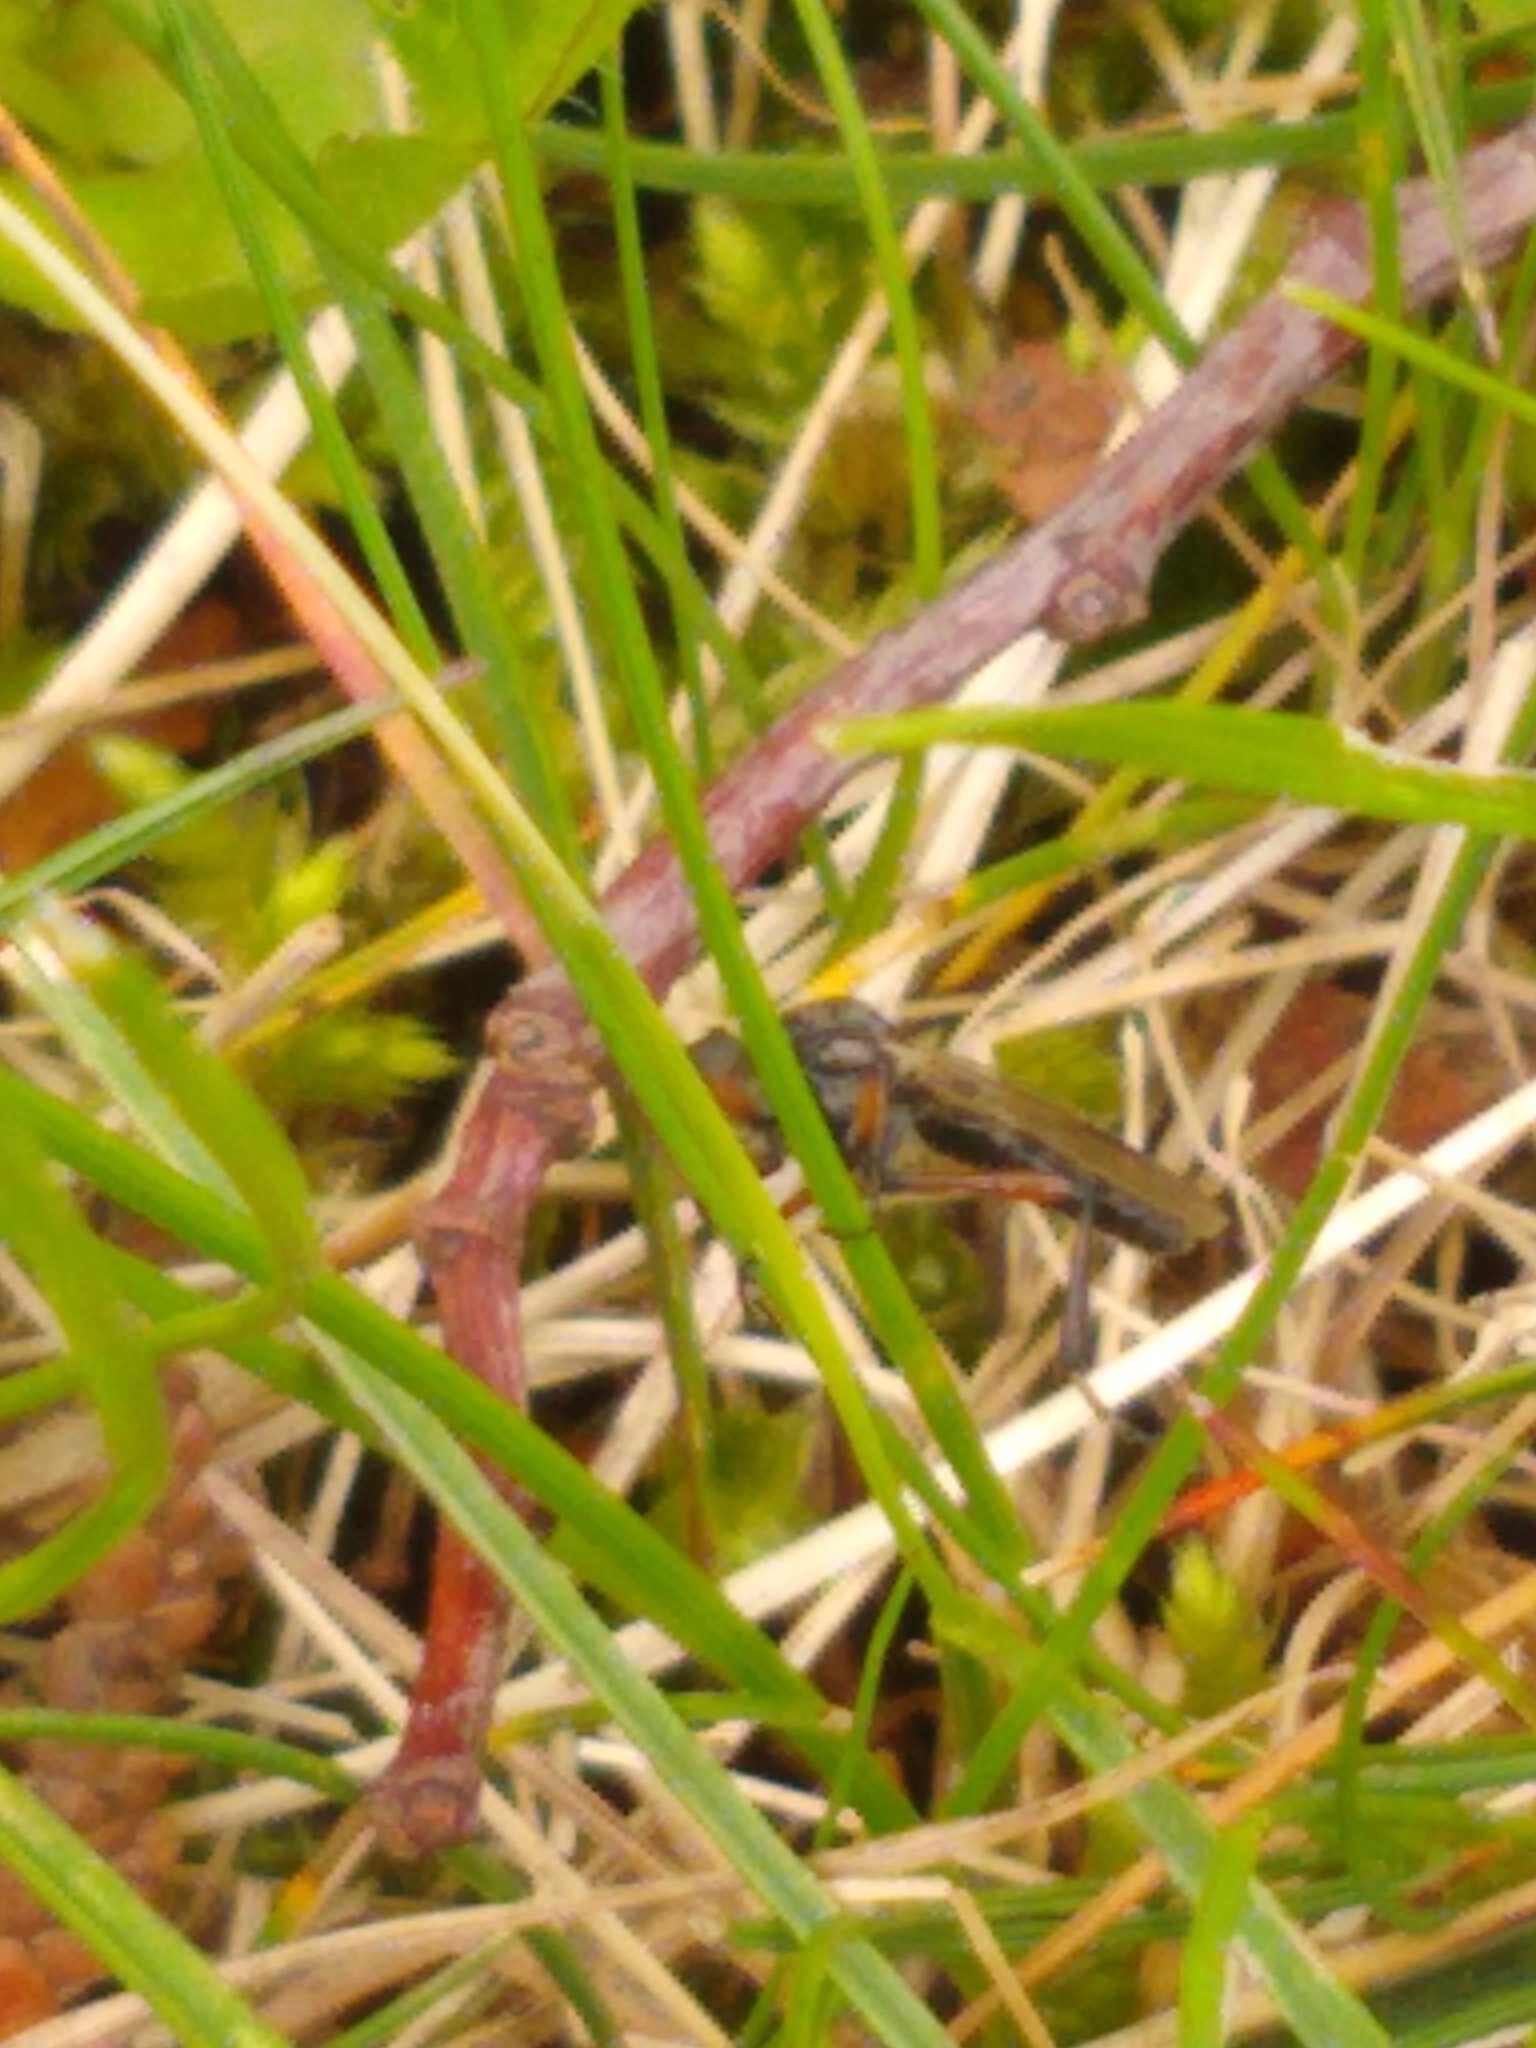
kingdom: Animalia
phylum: Arthropoda
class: Insecta
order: Diptera
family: Bibionidae
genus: Bibio
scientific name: Bibio femoratus
